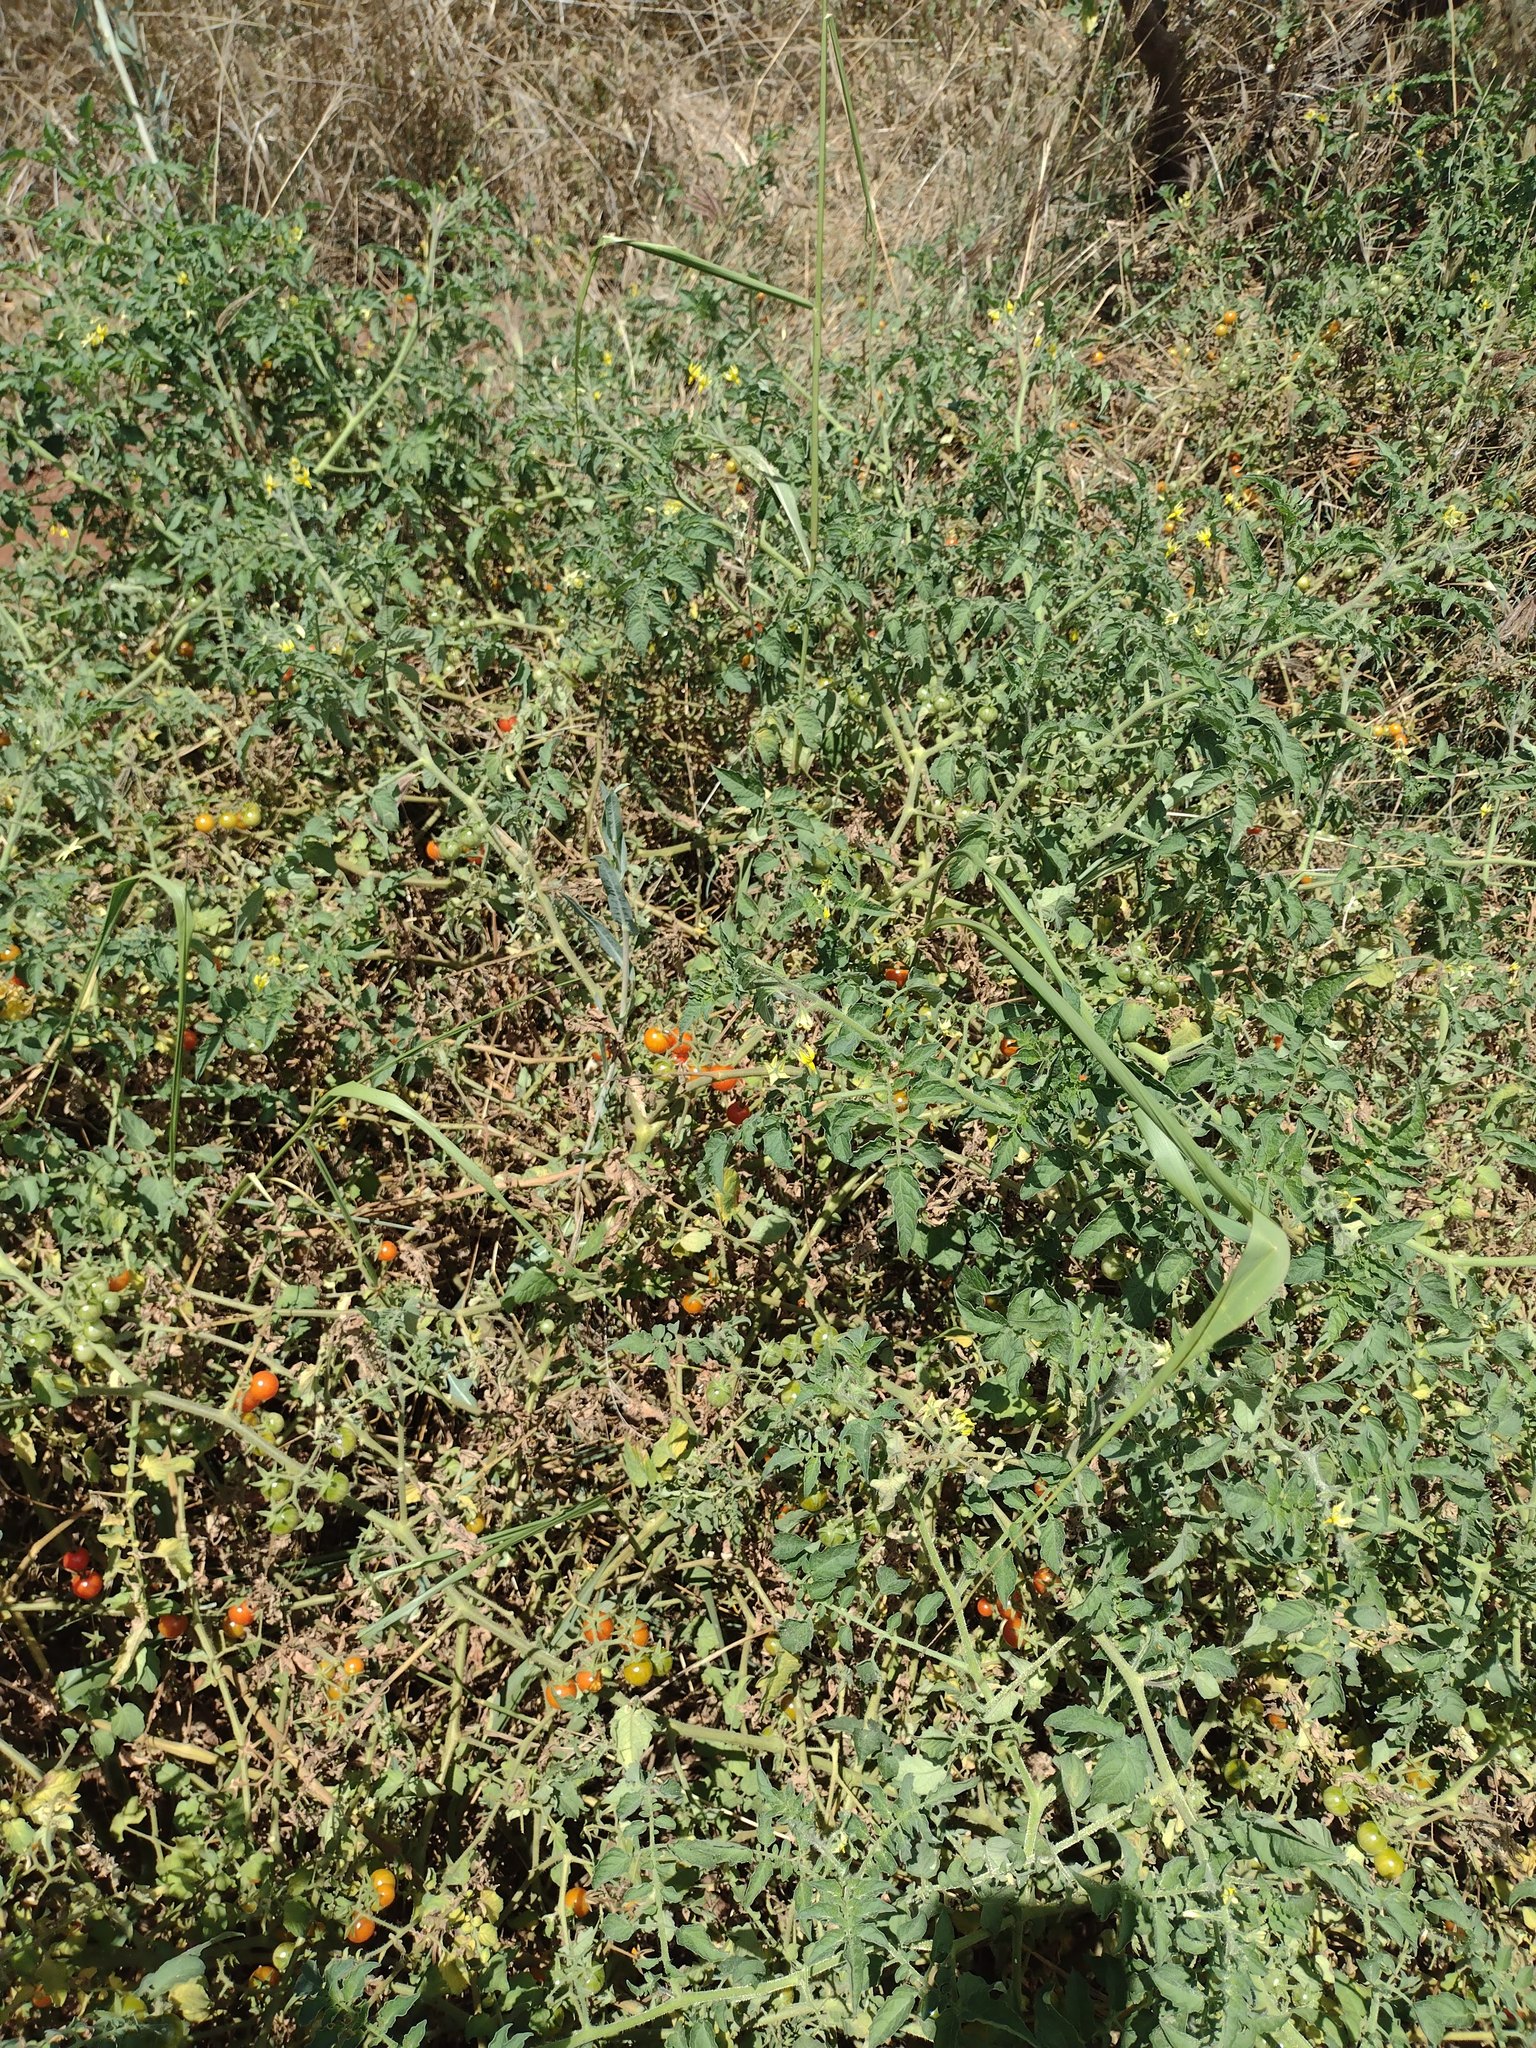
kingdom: Plantae
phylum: Tracheophyta
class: Magnoliopsida
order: Solanales
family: Solanaceae
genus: Solanum
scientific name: Solanum lycopersicum
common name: Garden tomato
